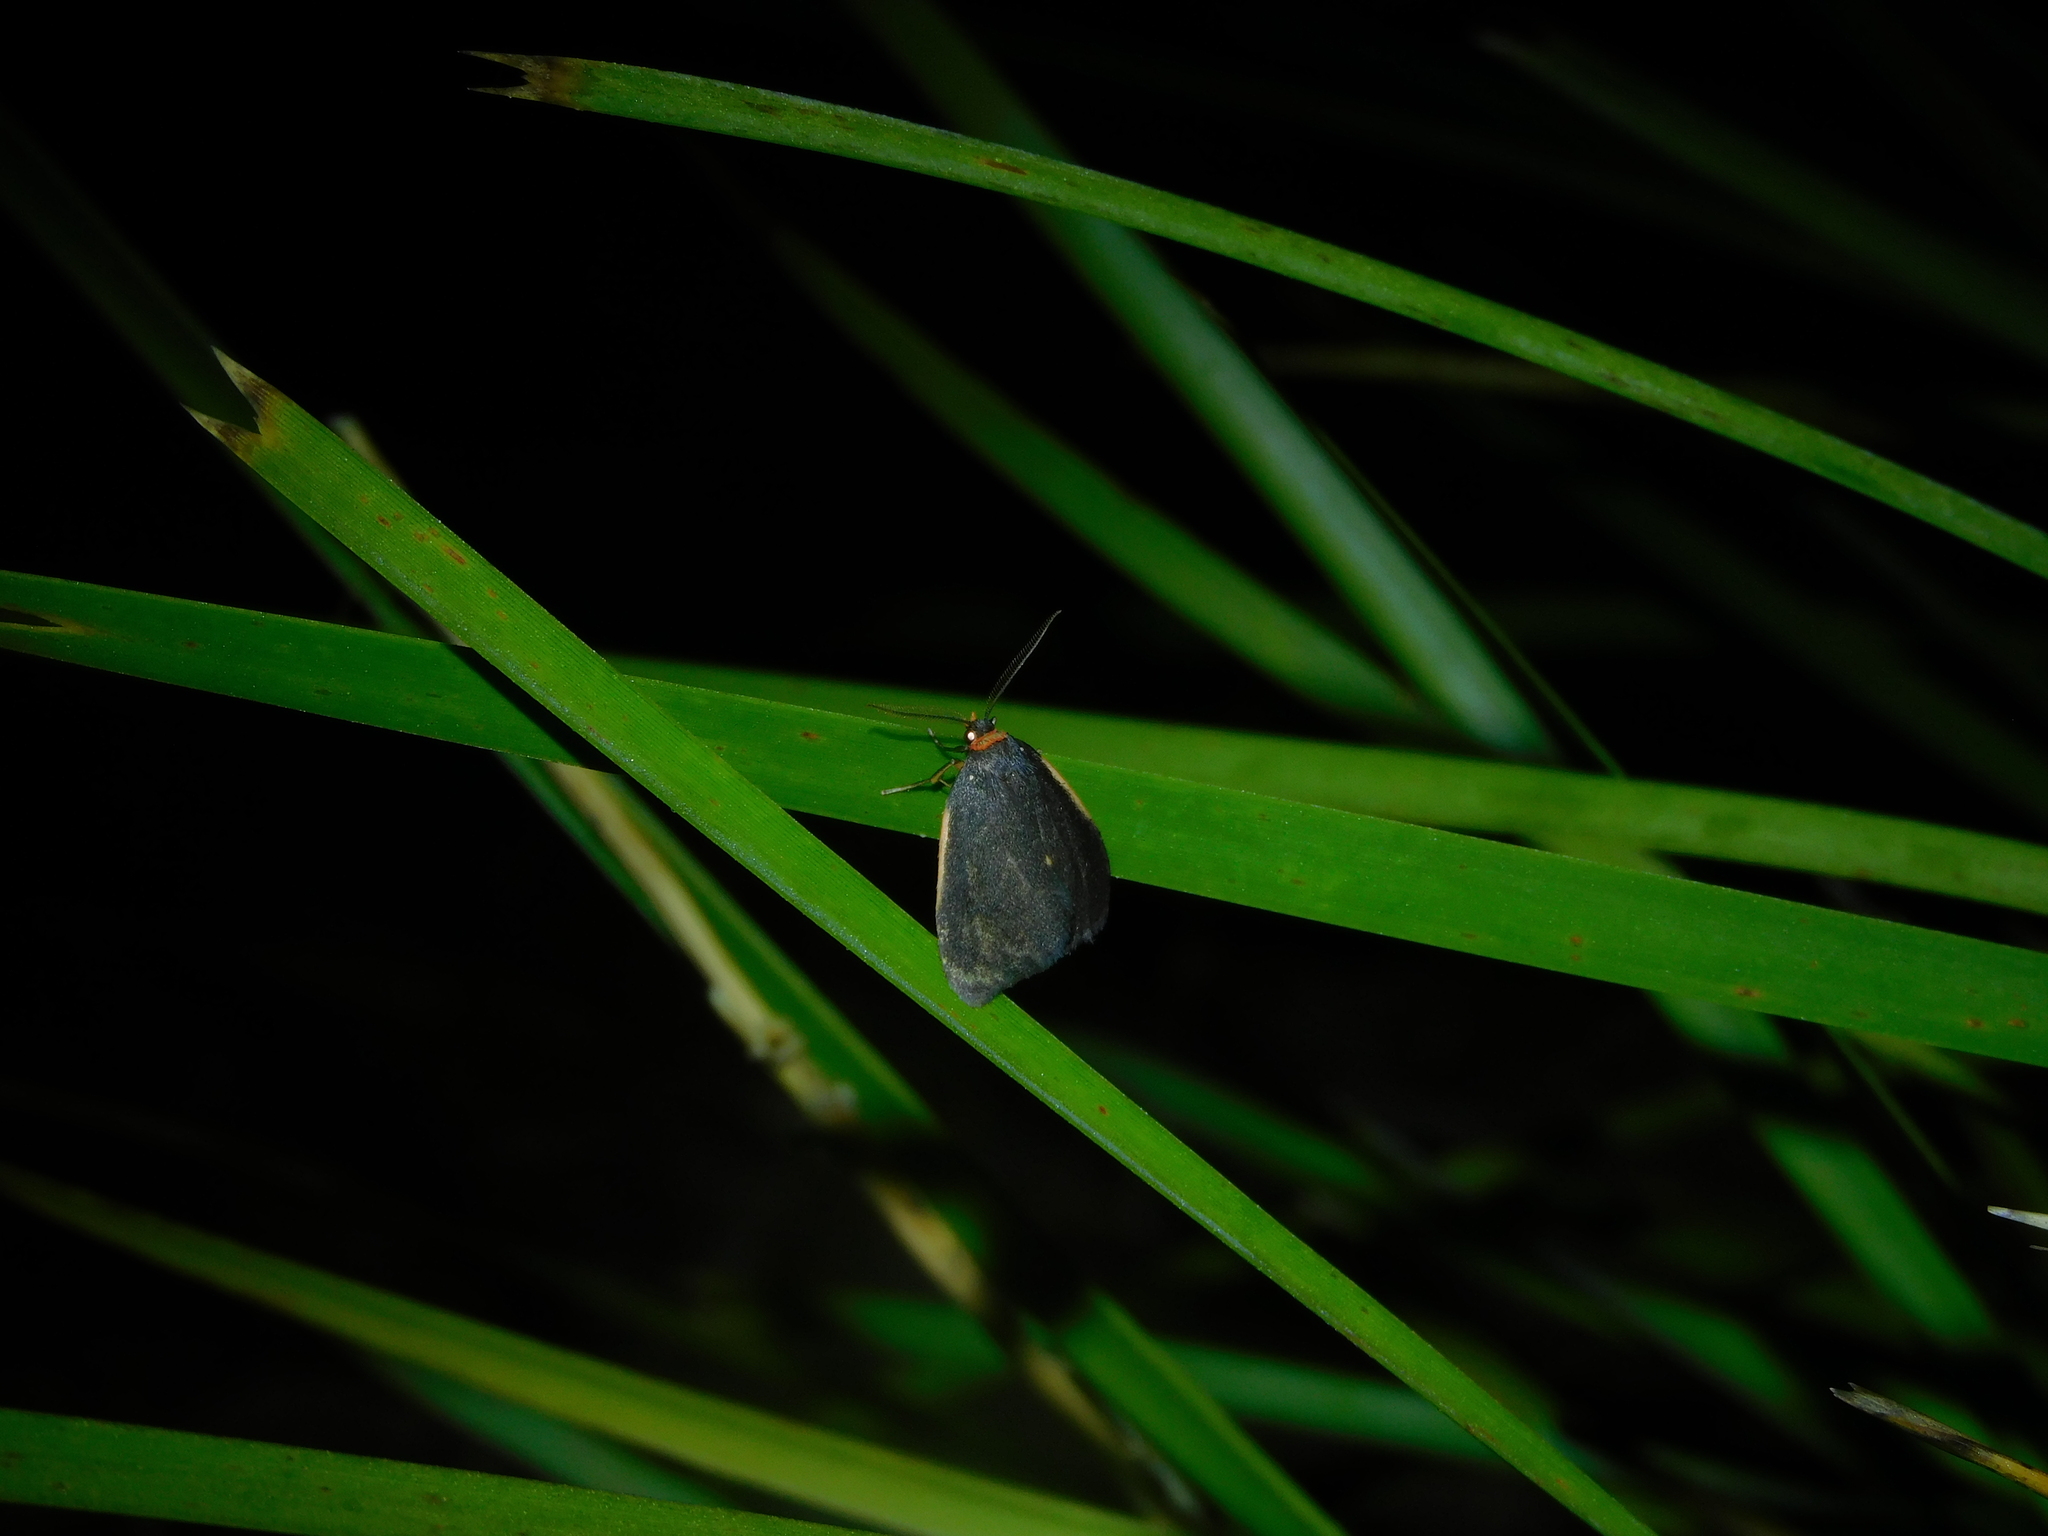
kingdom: Animalia
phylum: Arthropoda
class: Insecta
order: Lepidoptera
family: Erebidae
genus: Castulo
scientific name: Castulo doubledayi
